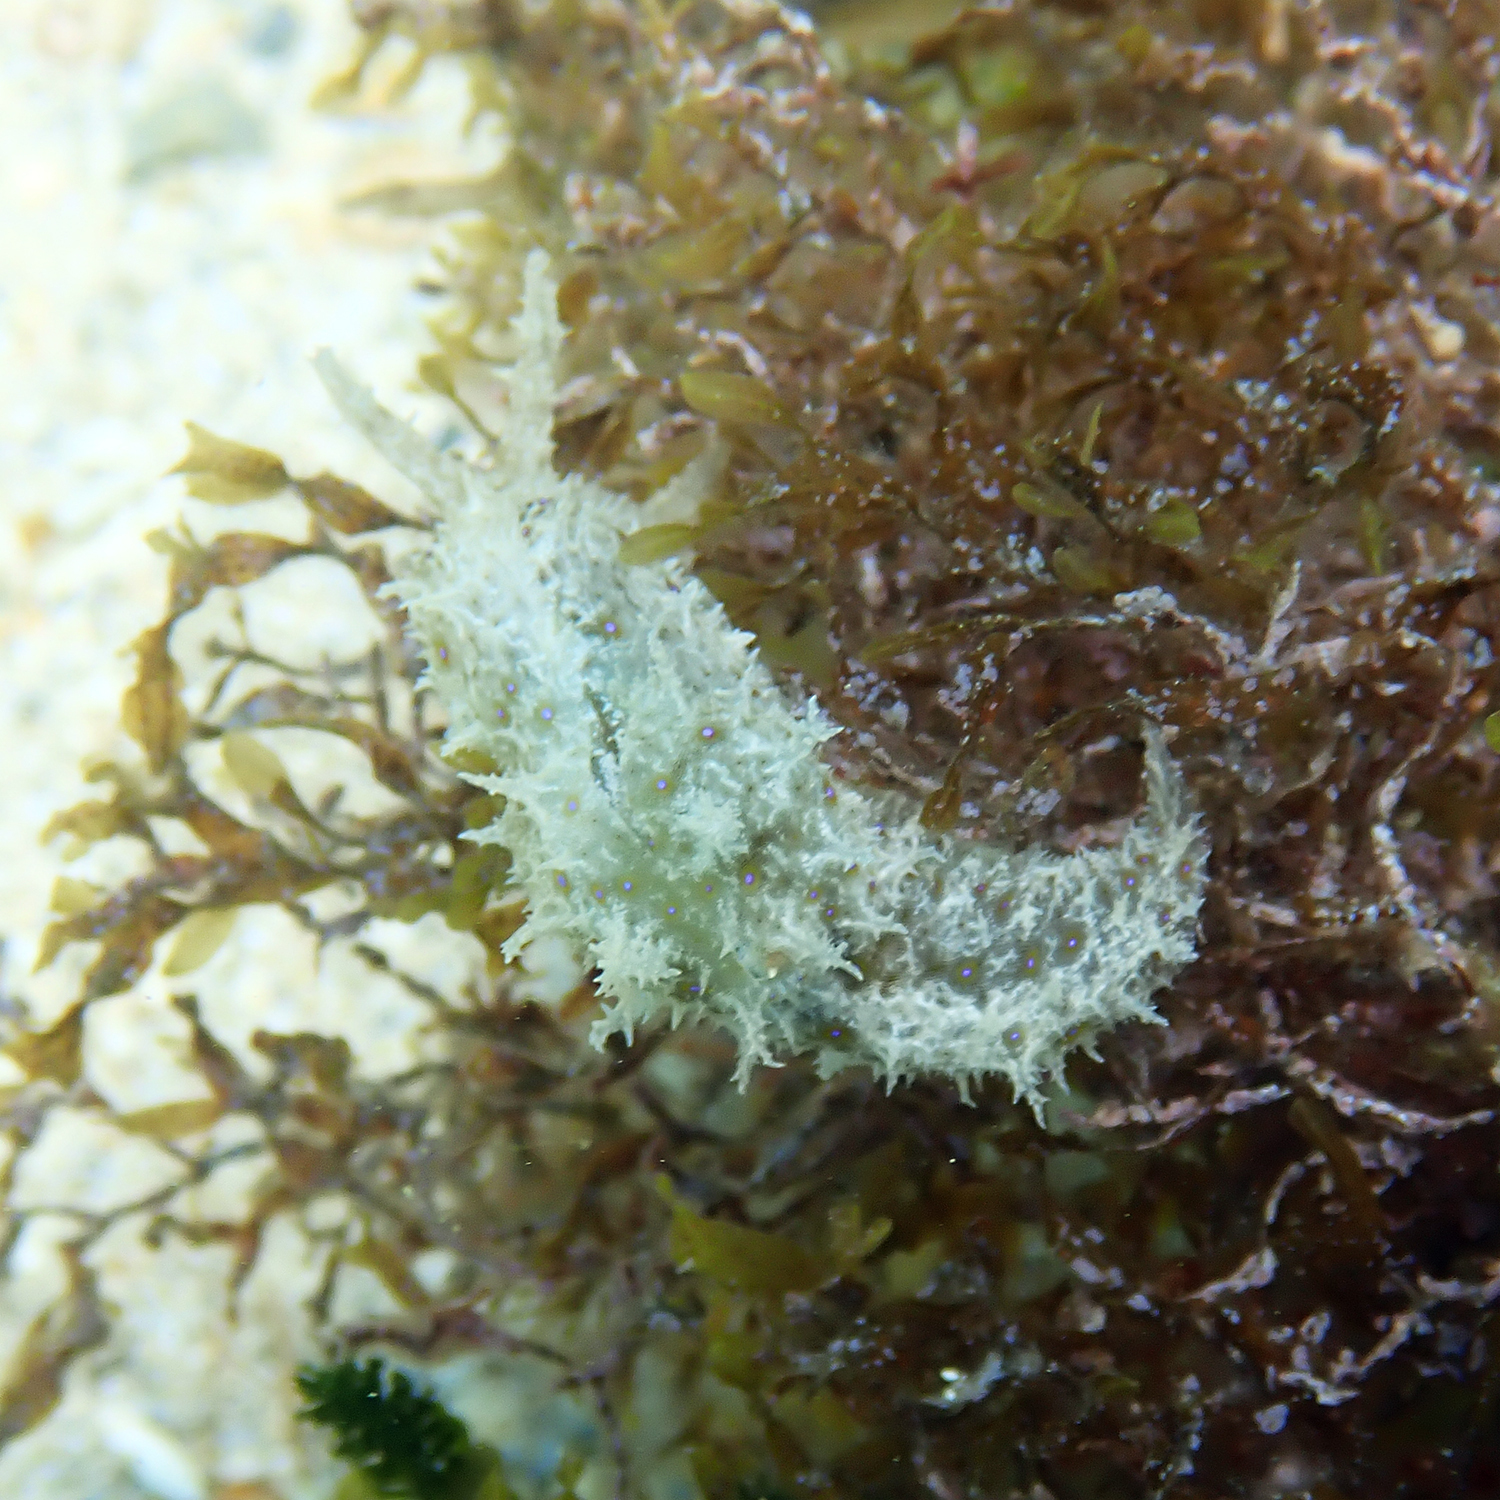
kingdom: Animalia
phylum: Mollusca
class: Gastropoda
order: Aplysiida
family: Aplysiidae
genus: Stylocheilus
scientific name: Stylocheilus striatus
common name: Striated seahare
